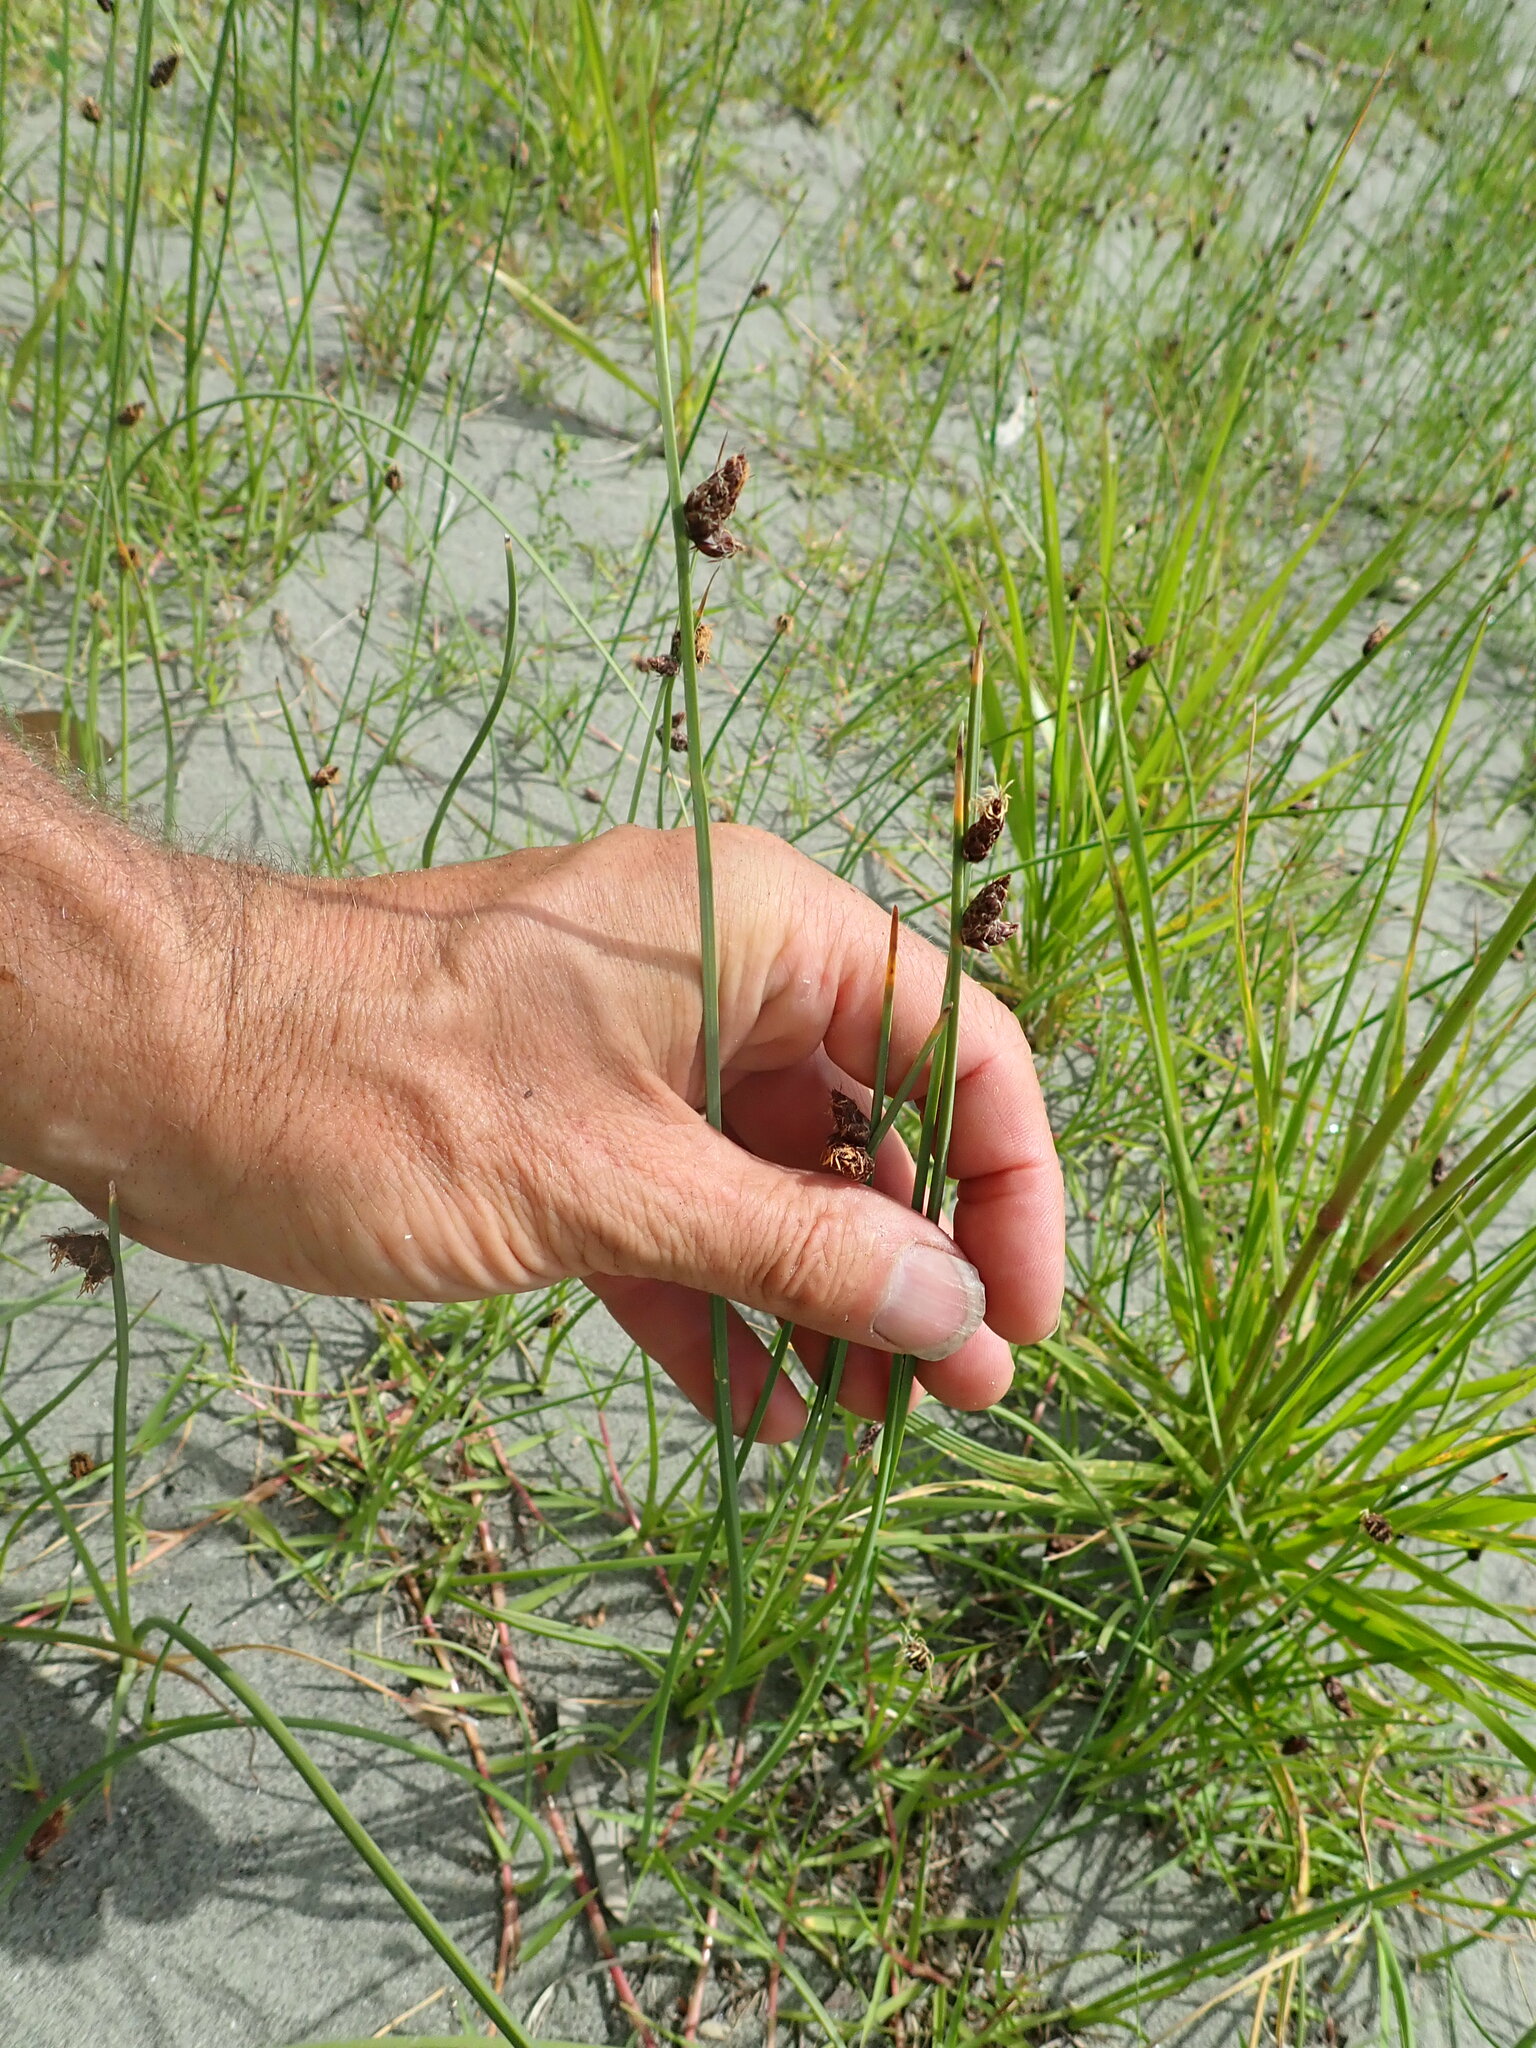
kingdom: Plantae
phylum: Tracheophyta
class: Liliopsida
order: Poales
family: Cyperaceae
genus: Schoenoplectus
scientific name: Schoenoplectus pungens
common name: Sharp club-rush
